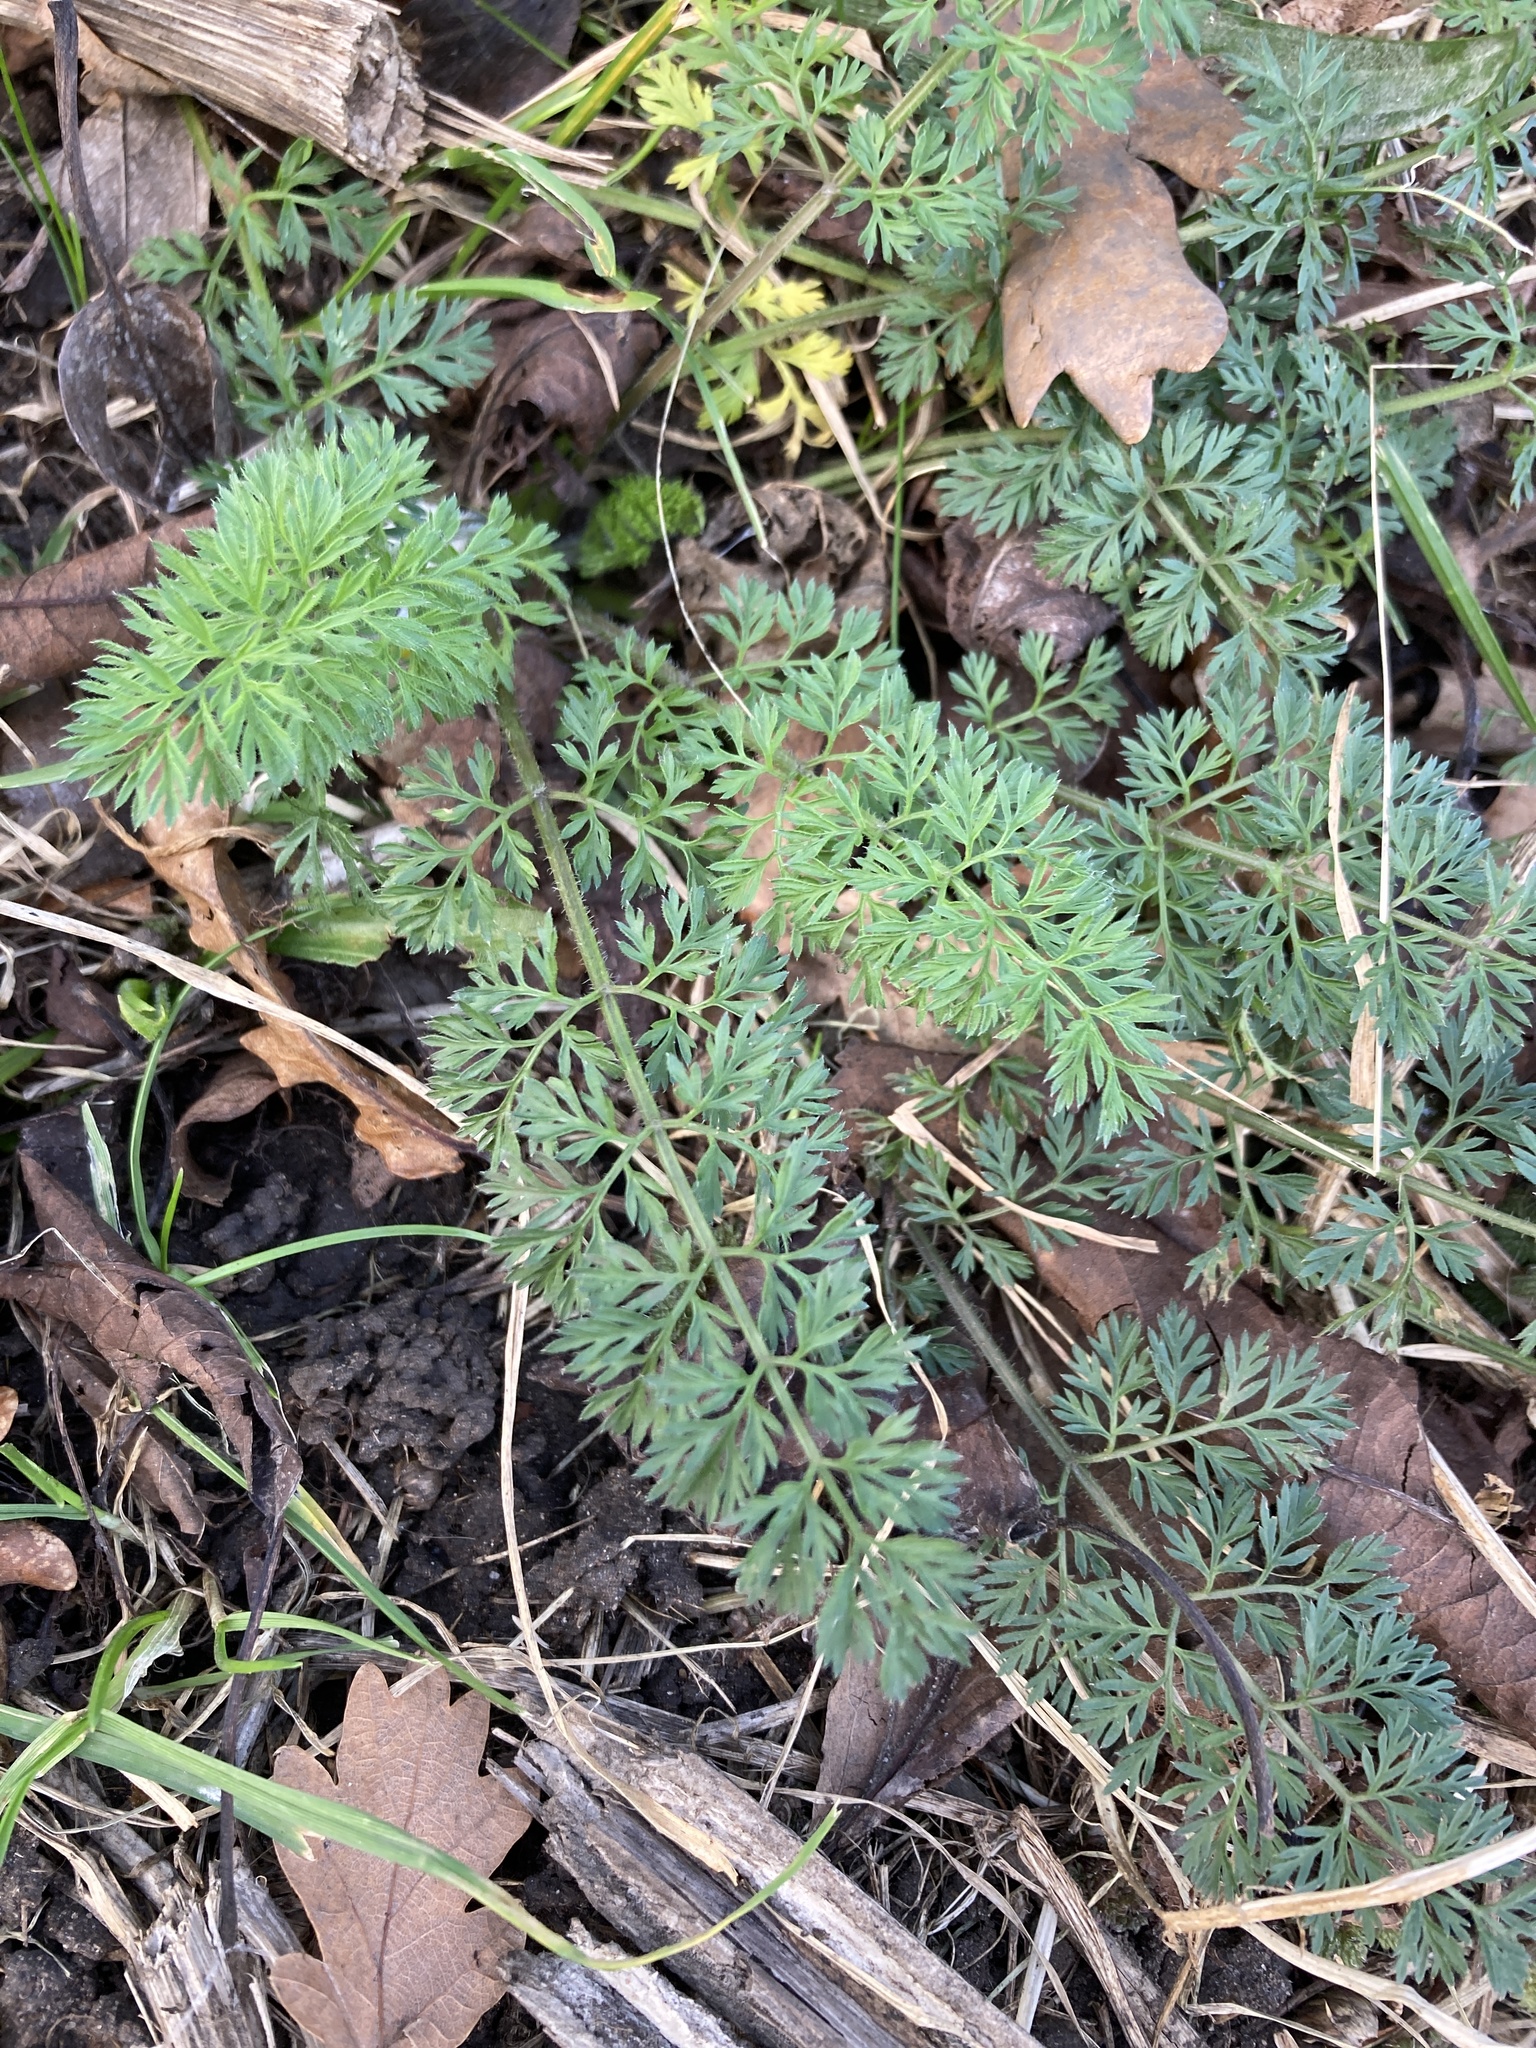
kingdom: Plantae
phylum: Tracheophyta
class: Magnoliopsida
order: Apiales
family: Apiaceae
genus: Daucus
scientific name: Daucus carota
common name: Wild carrot
